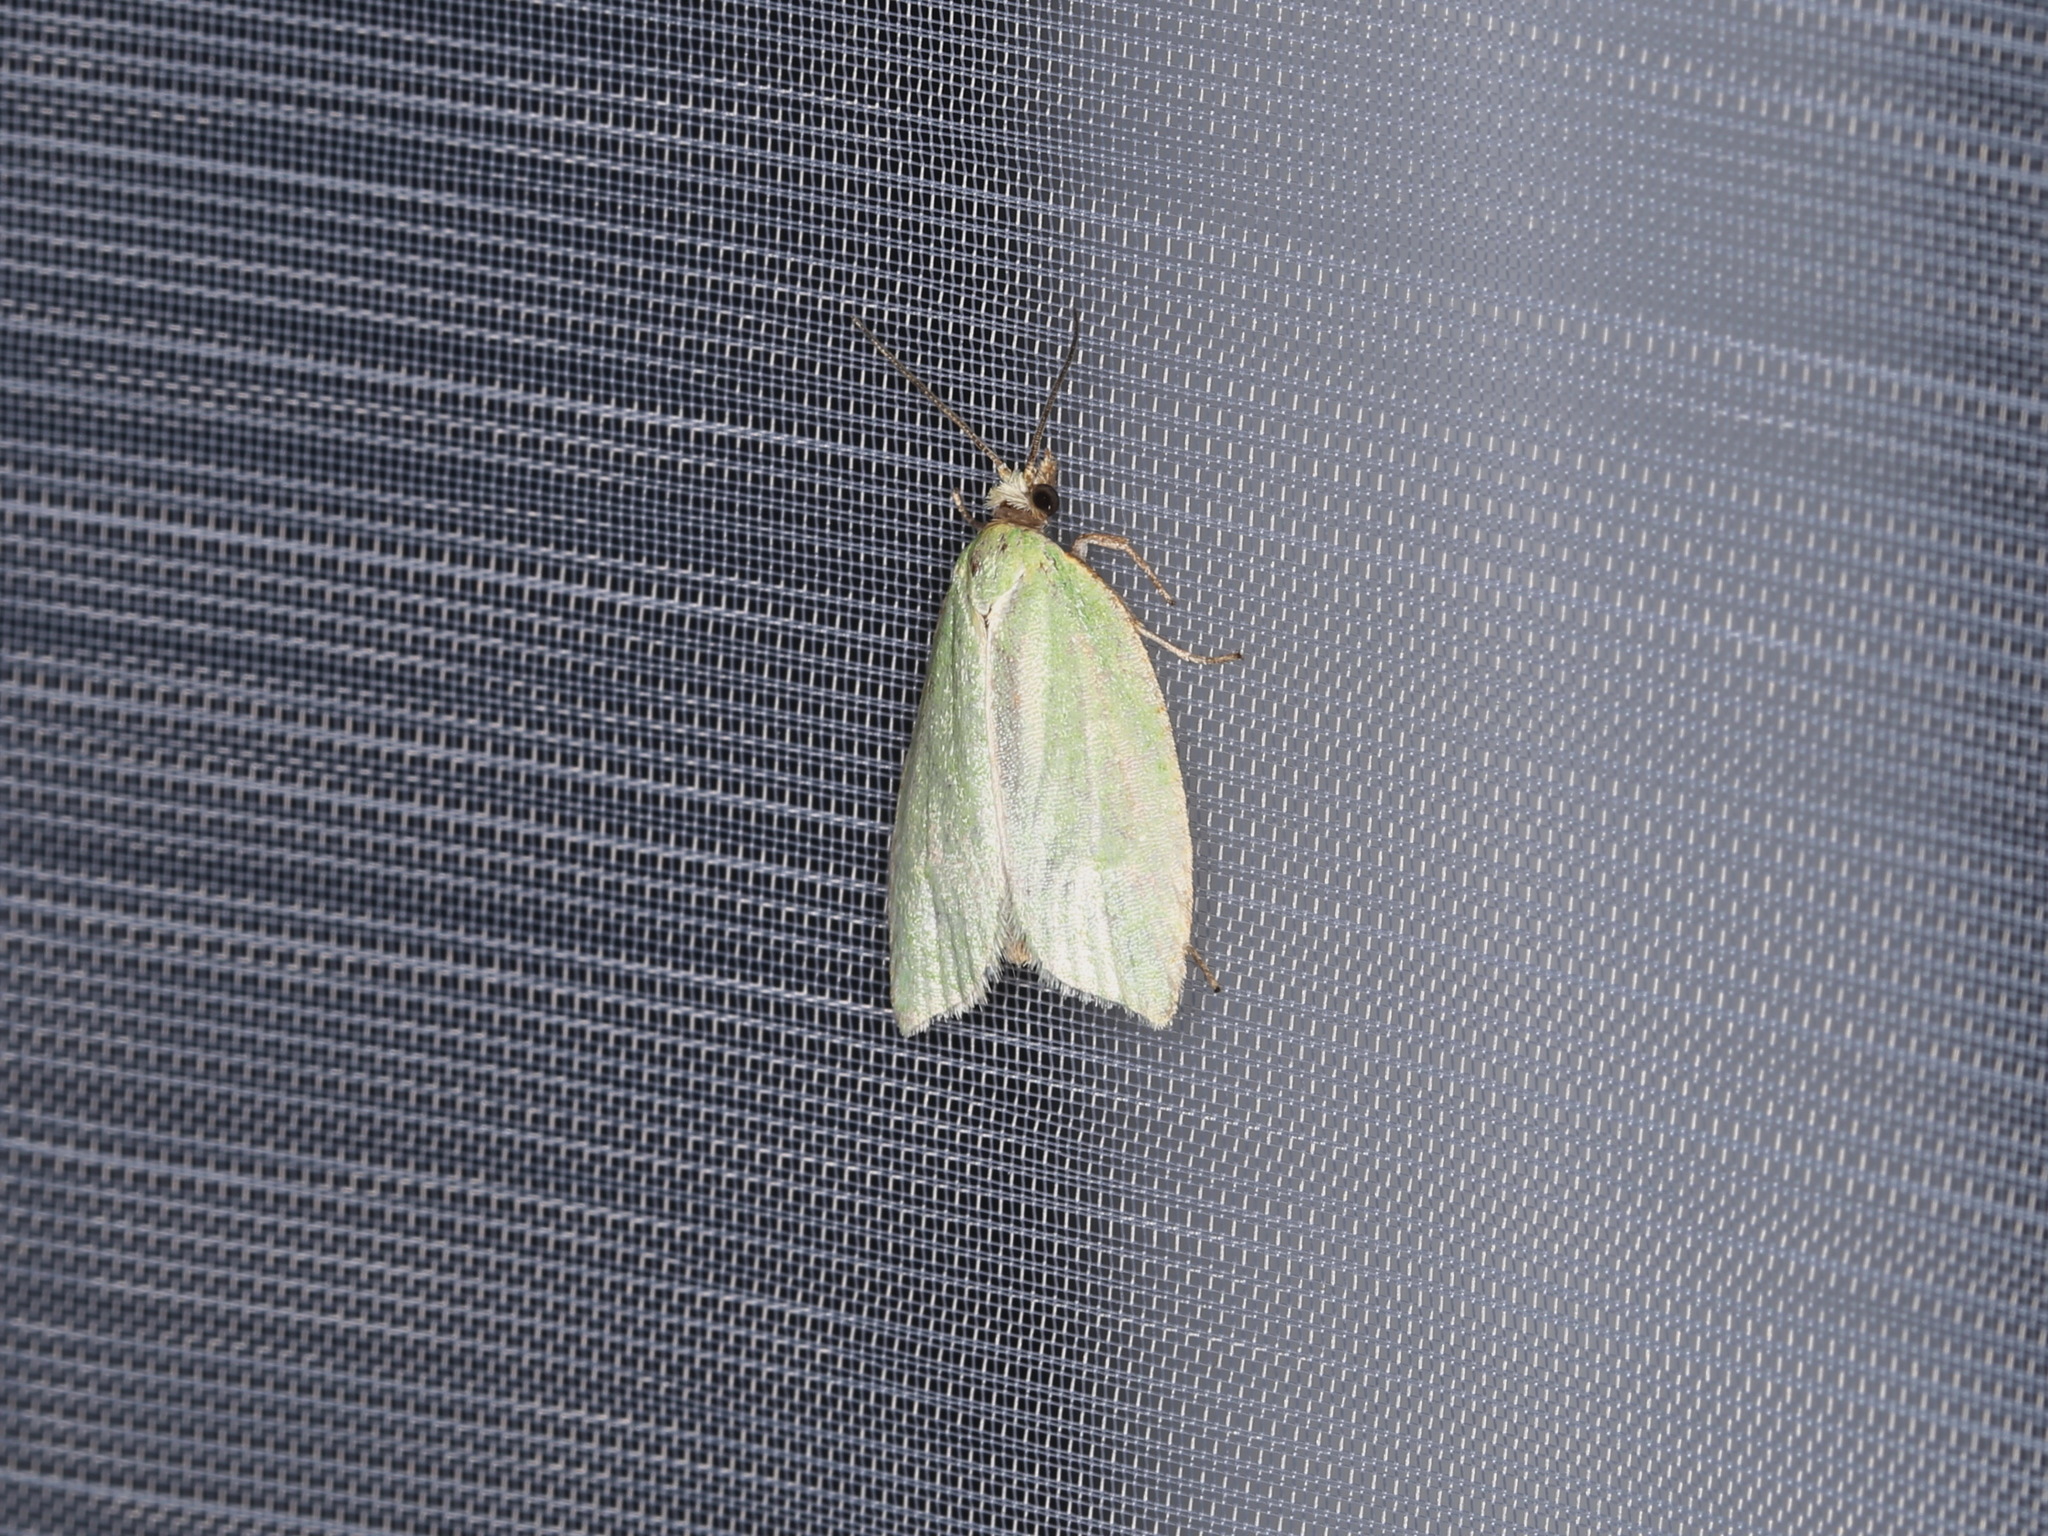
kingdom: Animalia
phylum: Arthropoda
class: Insecta
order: Lepidoptera
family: Tortricidae
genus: Tortrix
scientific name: Tortrix viridana
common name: Green oak tortrix
